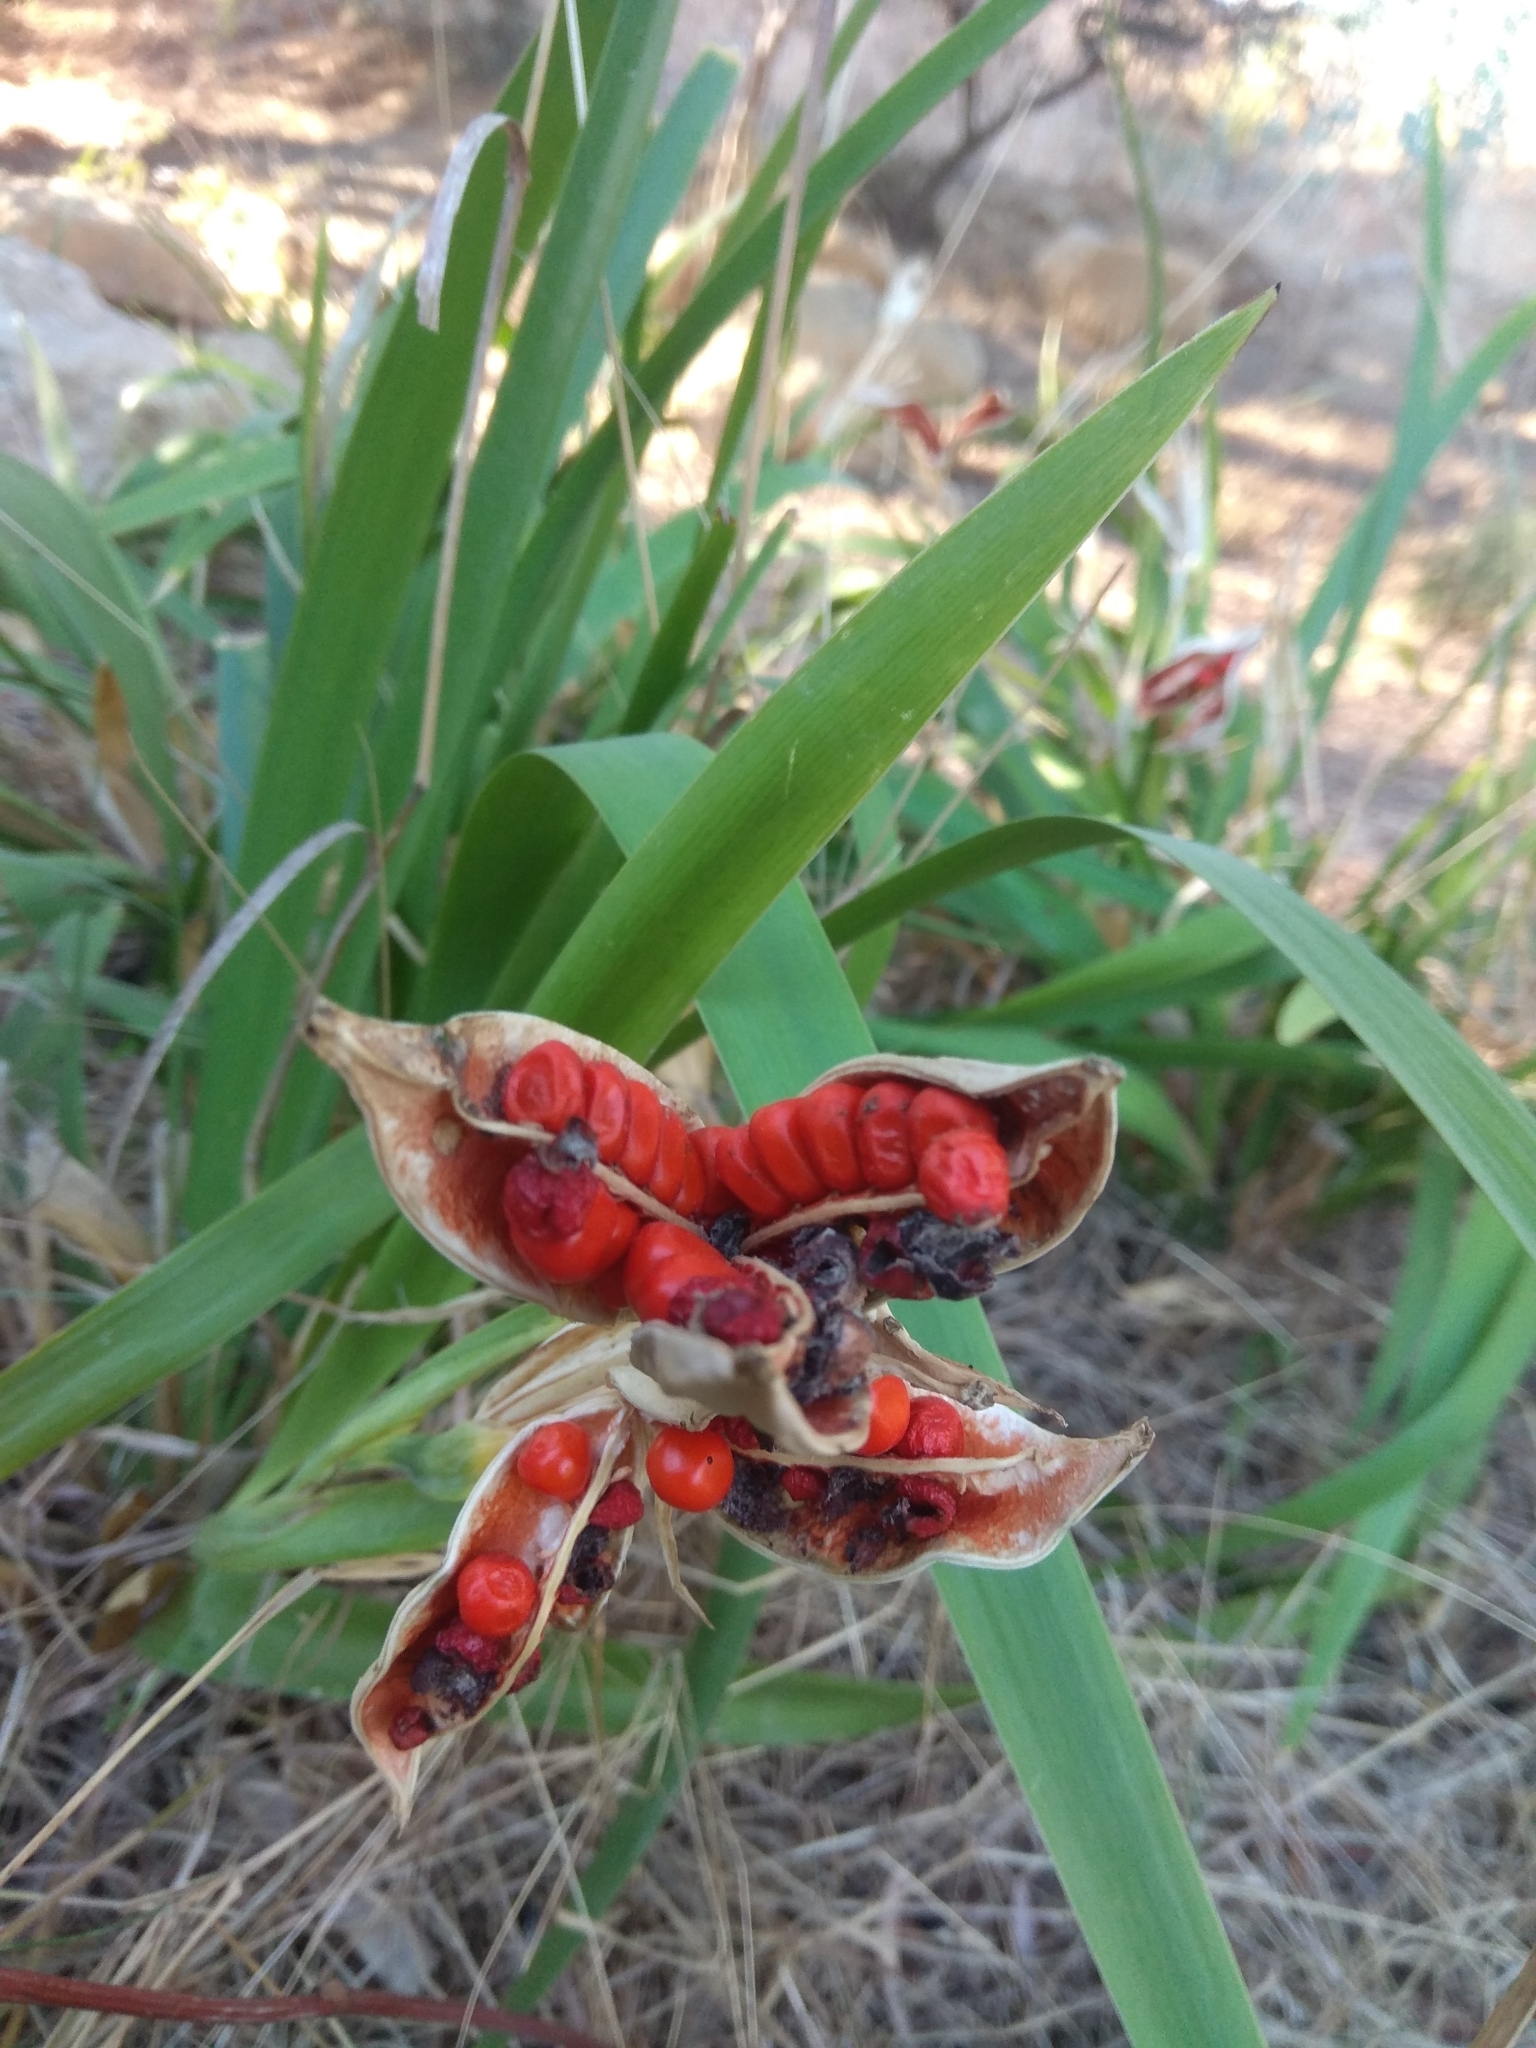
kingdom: Plantae
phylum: Tracheophyta
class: Liliopsida
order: Asparagales
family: Iridaceae
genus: Iris
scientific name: Iris foetidissima
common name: Stinking iris
